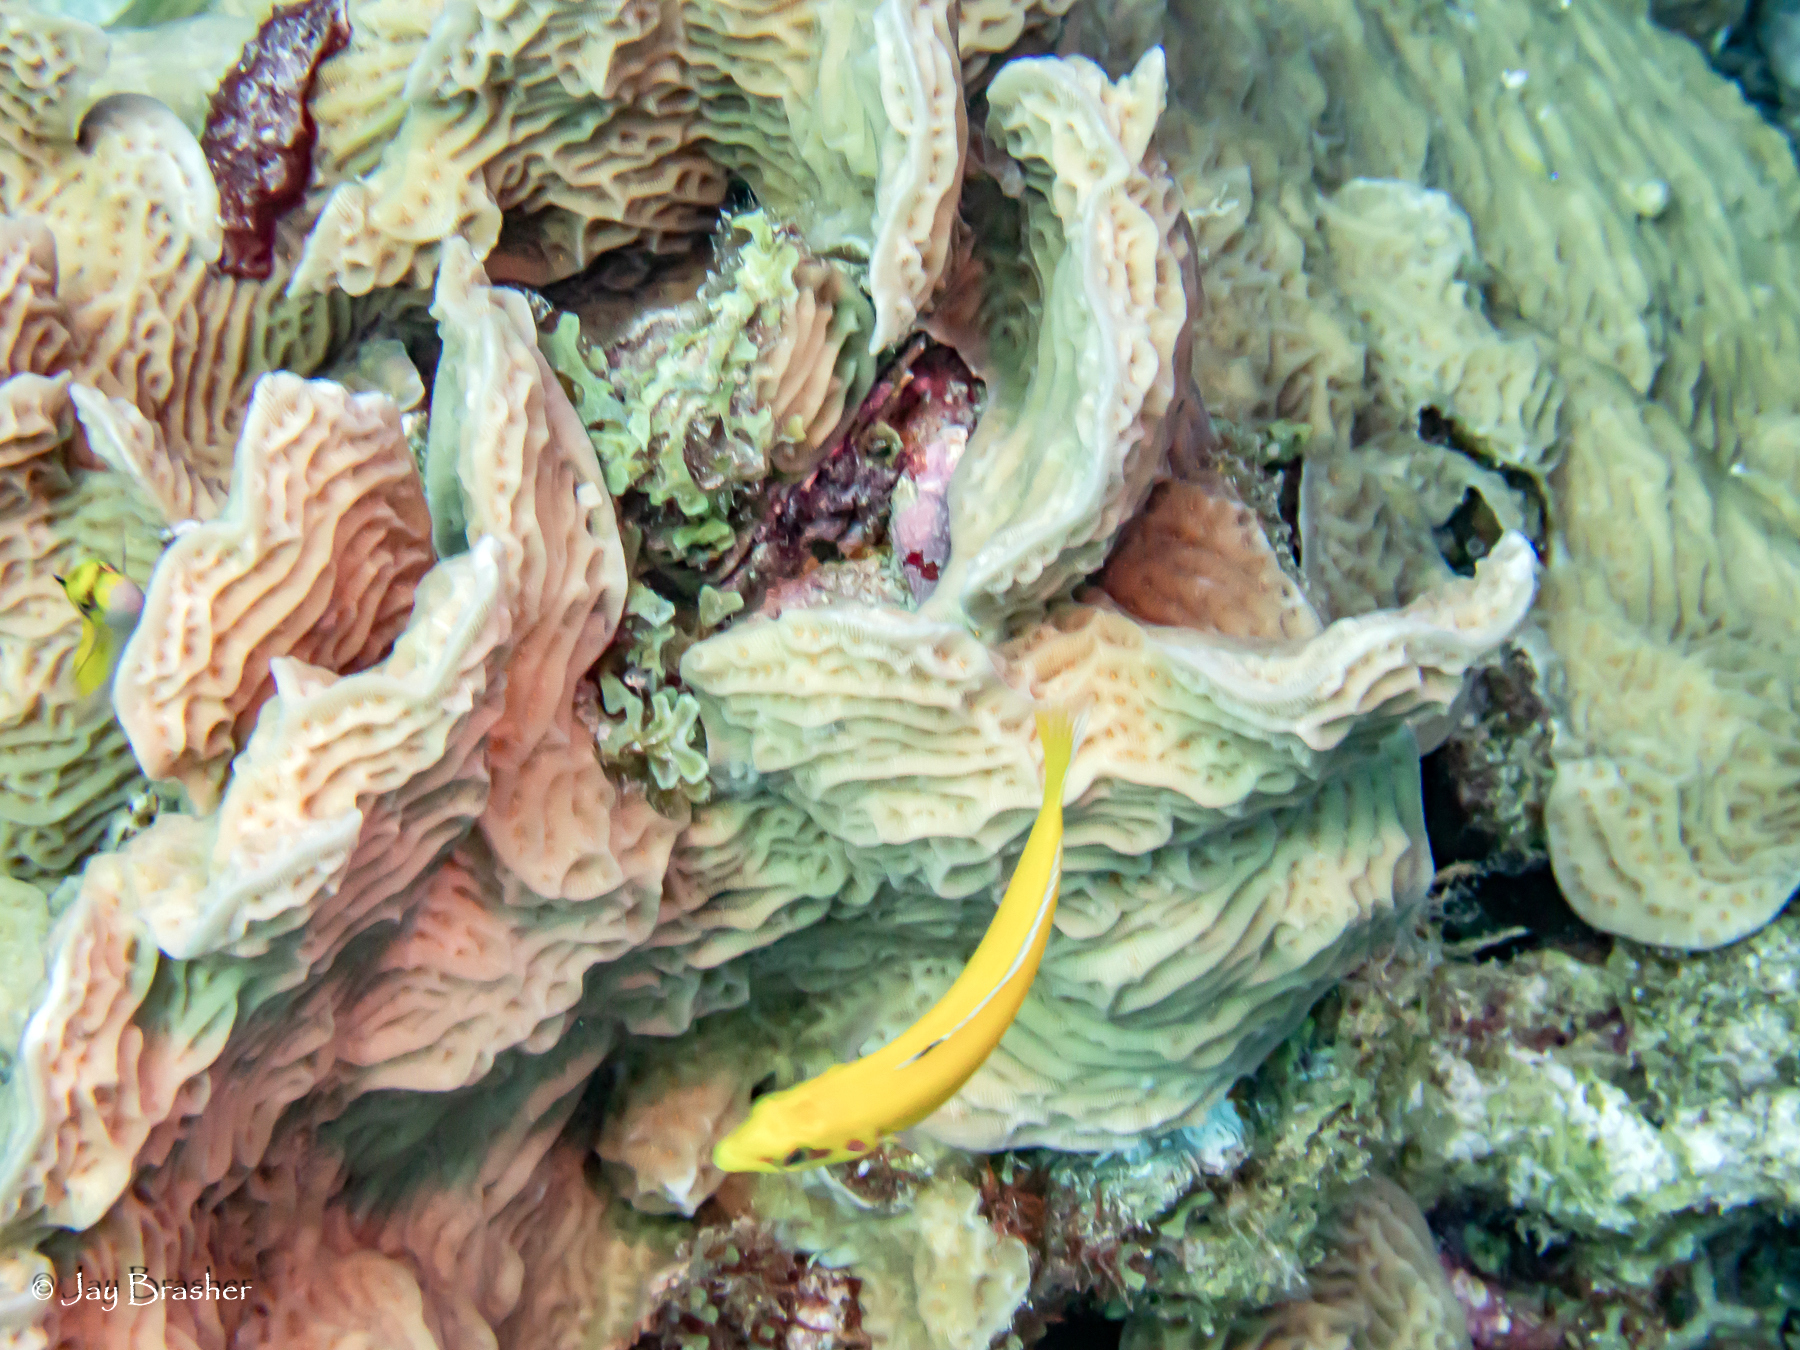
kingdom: Animalia
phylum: Chordata
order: Perciformes
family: Labridae
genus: Thalassoma
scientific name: Thalassoma bifasciatum
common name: Bluehead wrasse
